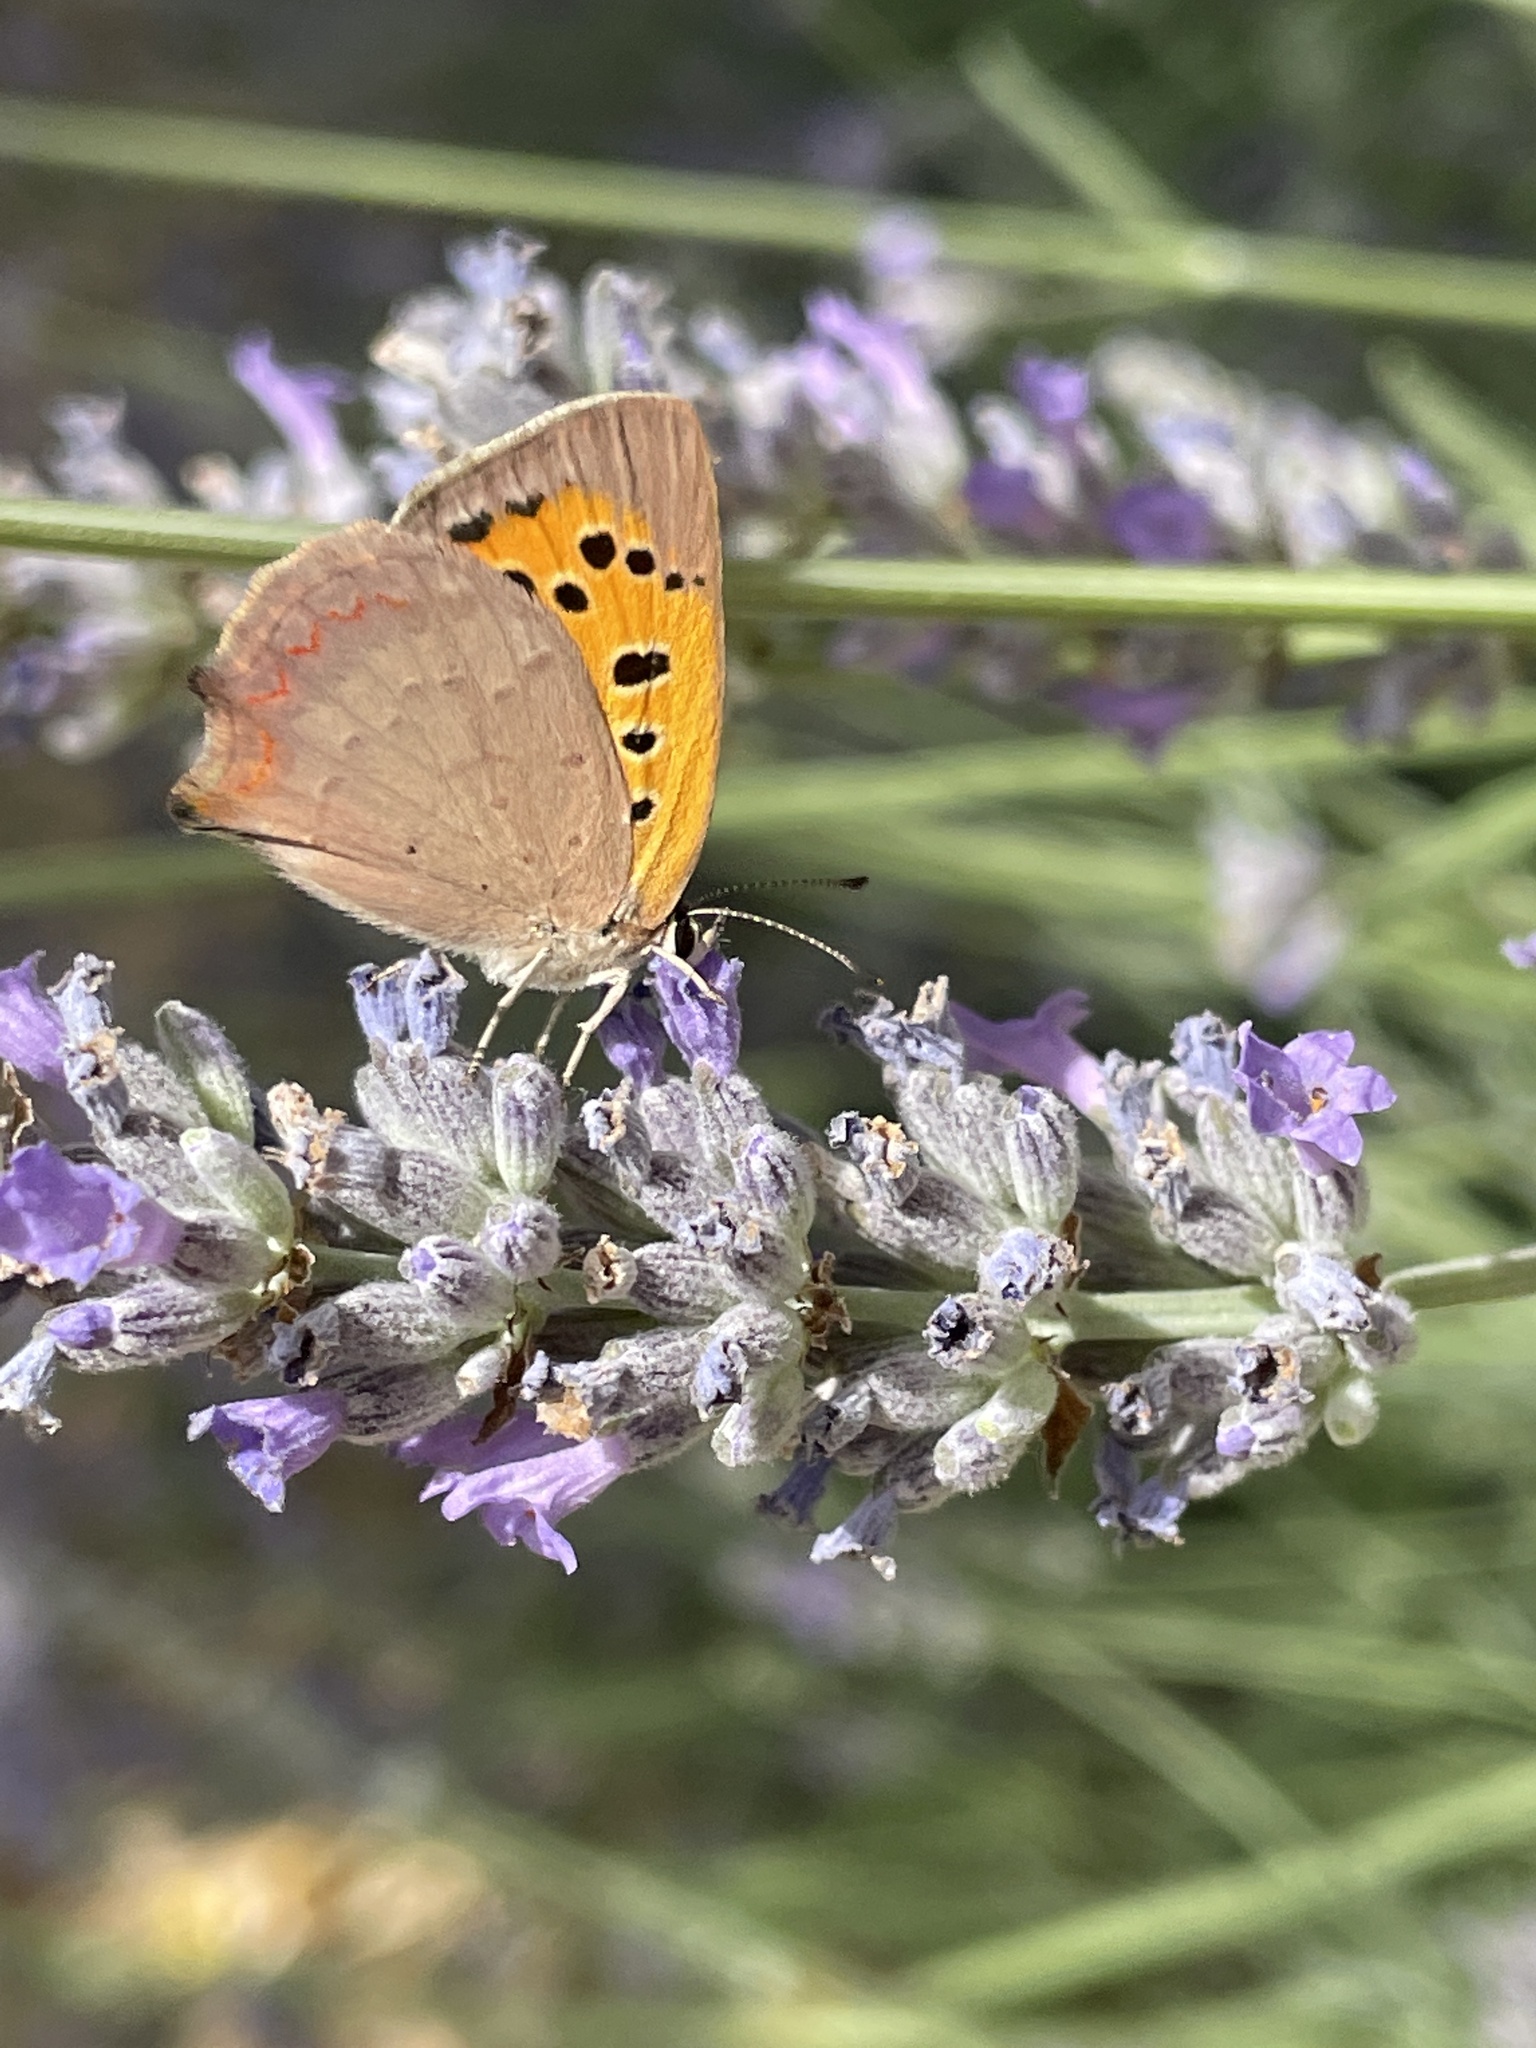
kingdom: Animalia
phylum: Arthropoda
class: Insecta
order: Lepidoptera
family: Lycaenidae
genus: Lycaena
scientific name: Lycaena phlaeas
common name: Small copper
